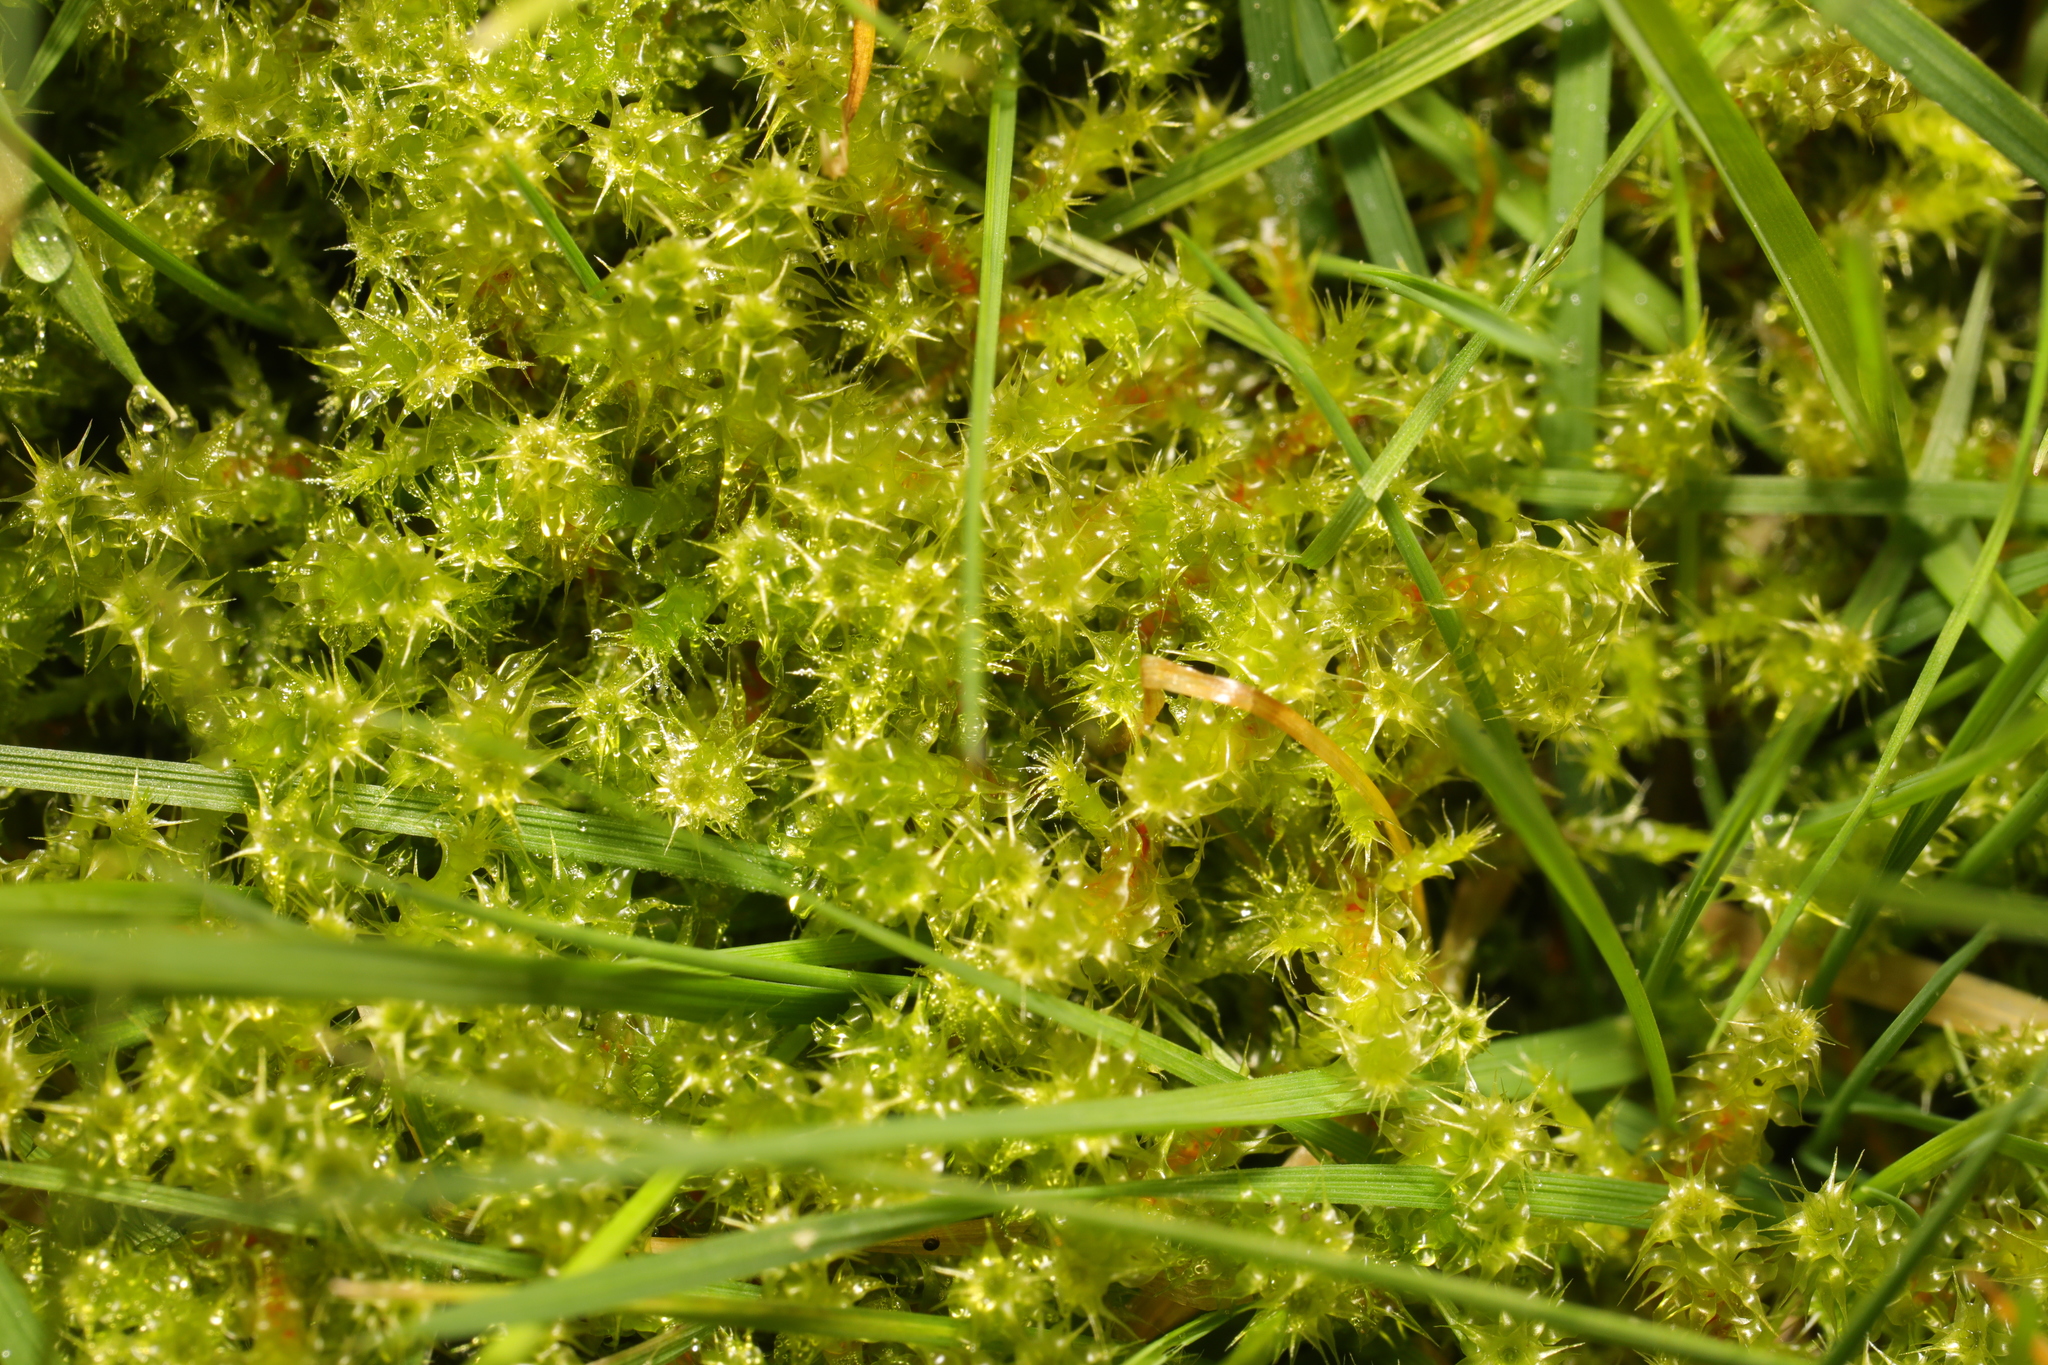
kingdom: Plantae
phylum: Bryophyta
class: Bryopsida
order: Hypnales
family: Hylocomiaceae
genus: Rhytidiadelphus
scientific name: Rhytidiadelphus squarrosus
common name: Springy turf-moss
